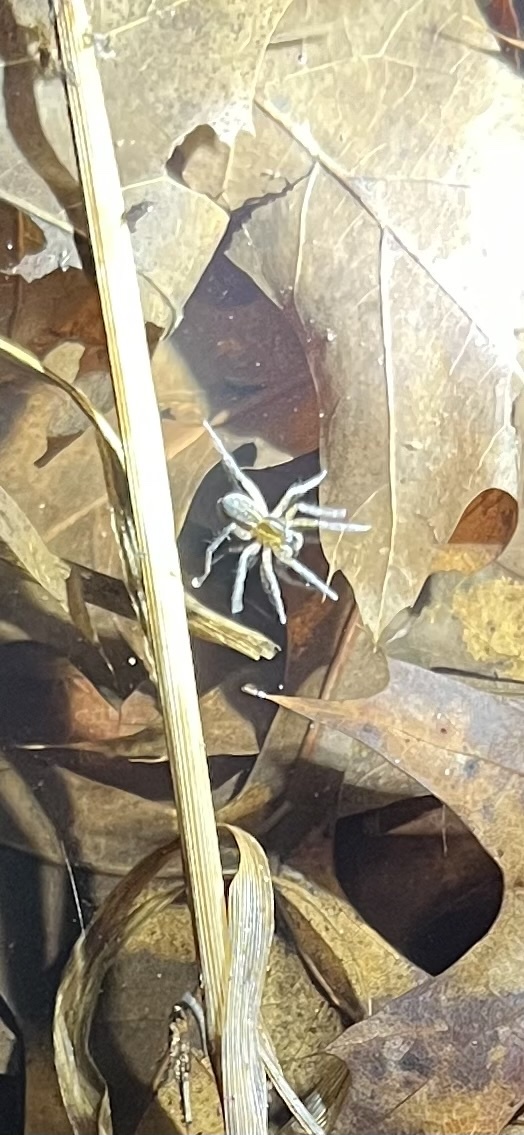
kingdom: Animalia
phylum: Arthropoda
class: Arachnida
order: Araneae
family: Lycosidae
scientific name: Lycosidae
